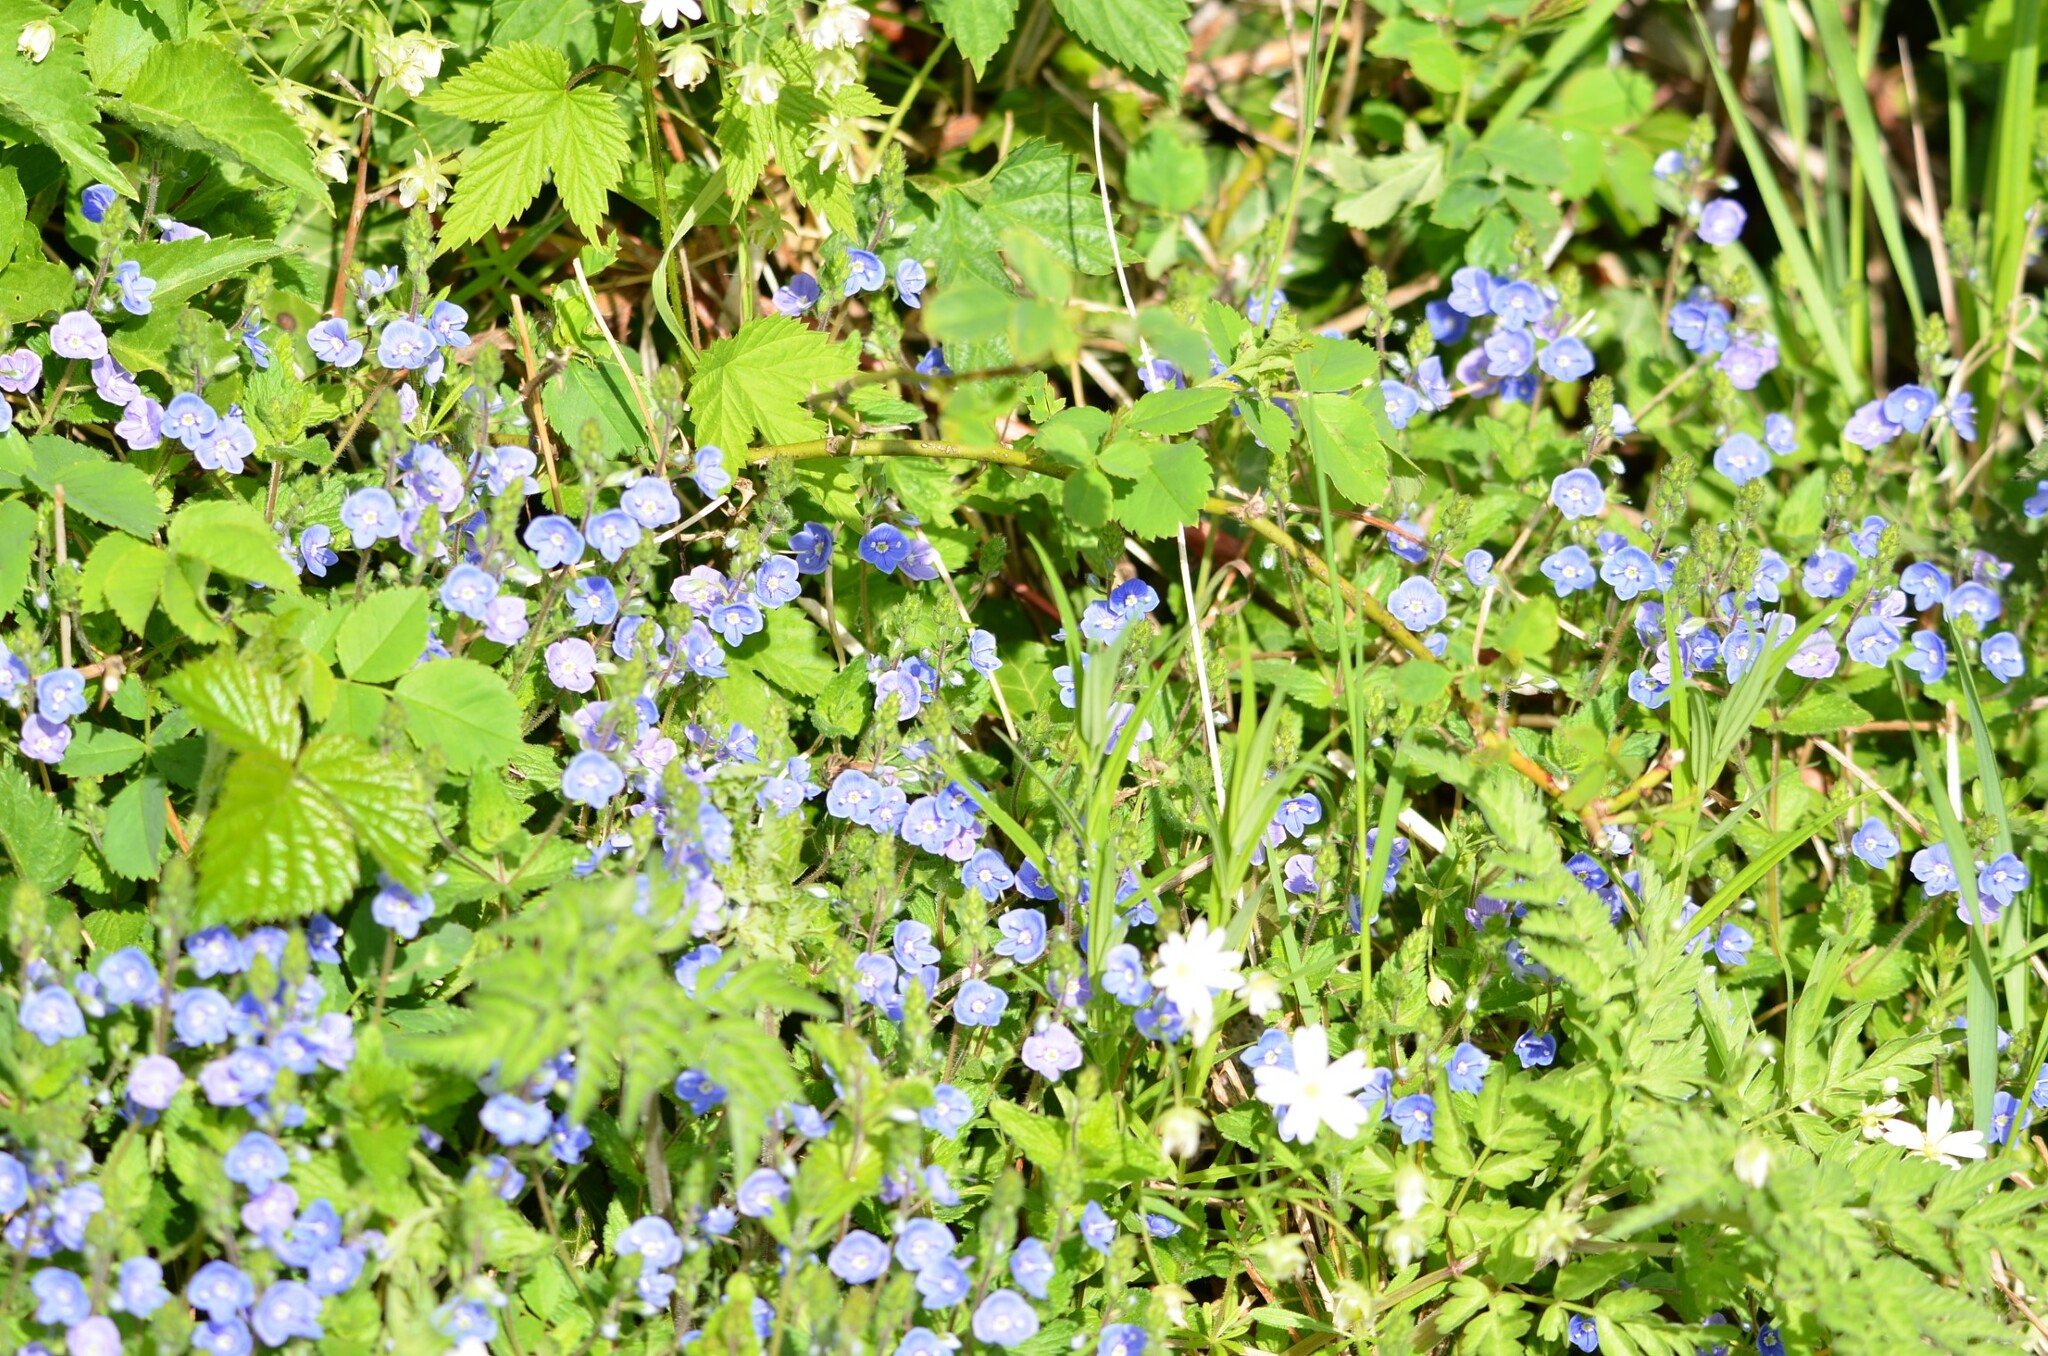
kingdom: Plantae
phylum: Tracheophyta
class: Magnoliopsida
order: Lamiales
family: Plantaginaceae
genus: Veronica
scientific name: Veronica chamaedrys
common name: Germander speedwell
